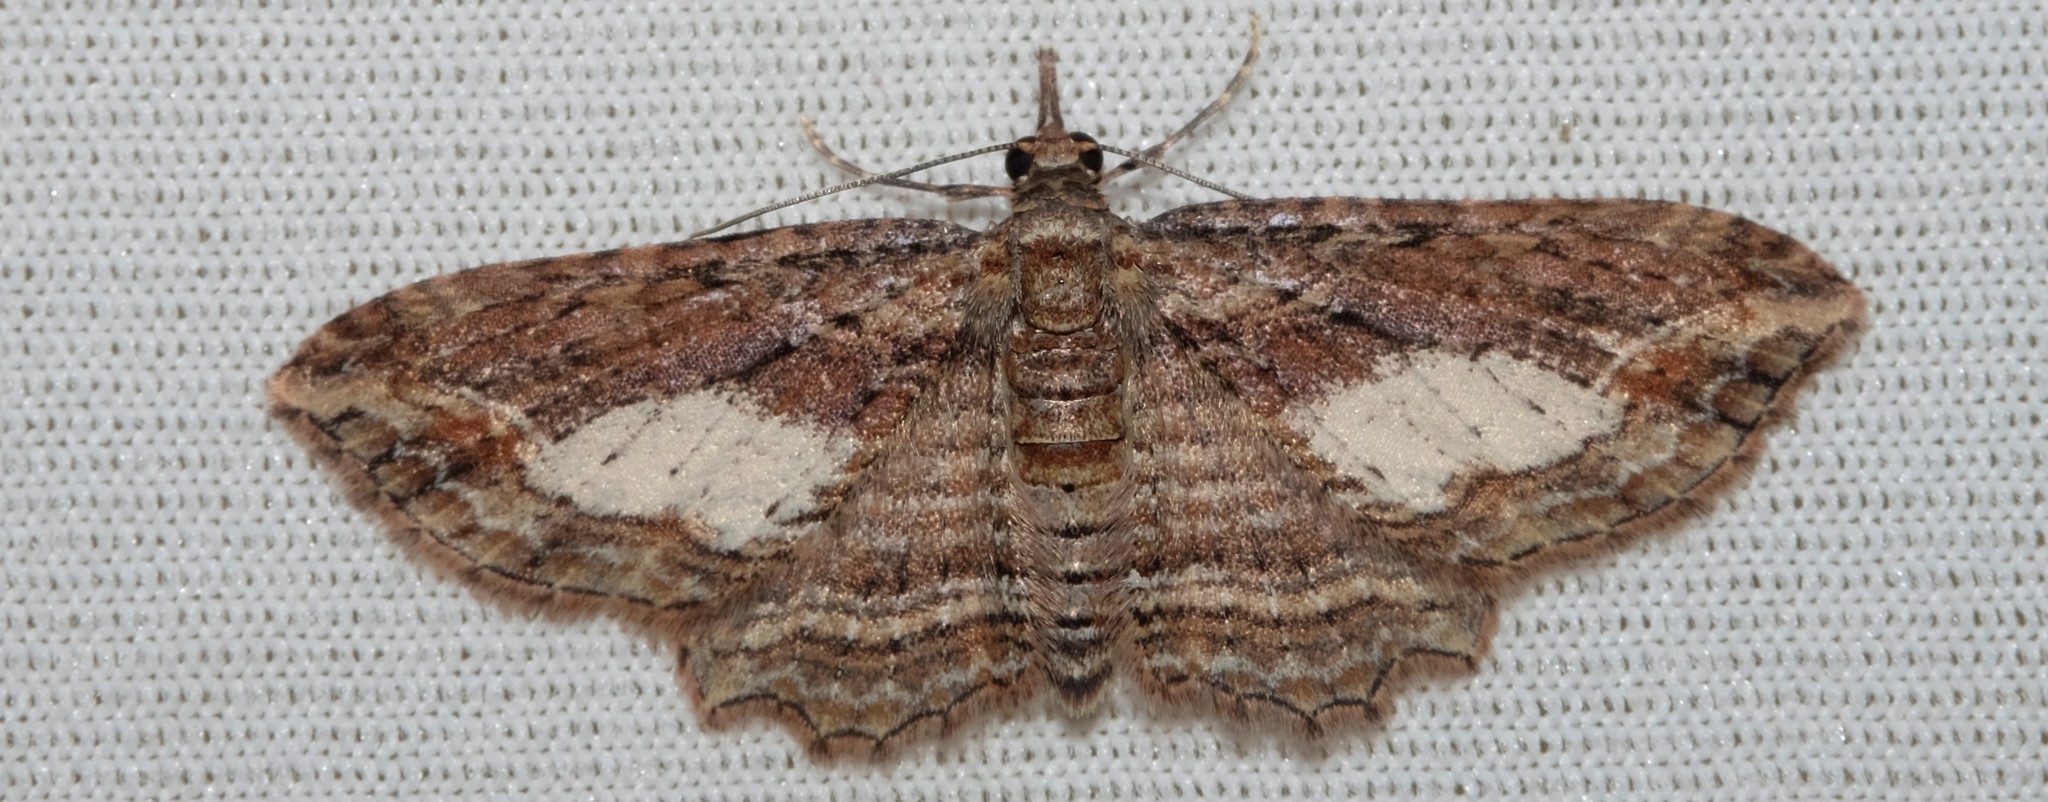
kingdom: Animalia
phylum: Arthropoda
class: Insecta
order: Lepidoptera
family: Geometridae
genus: Chloroclystis
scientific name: Chloroclystis filata
